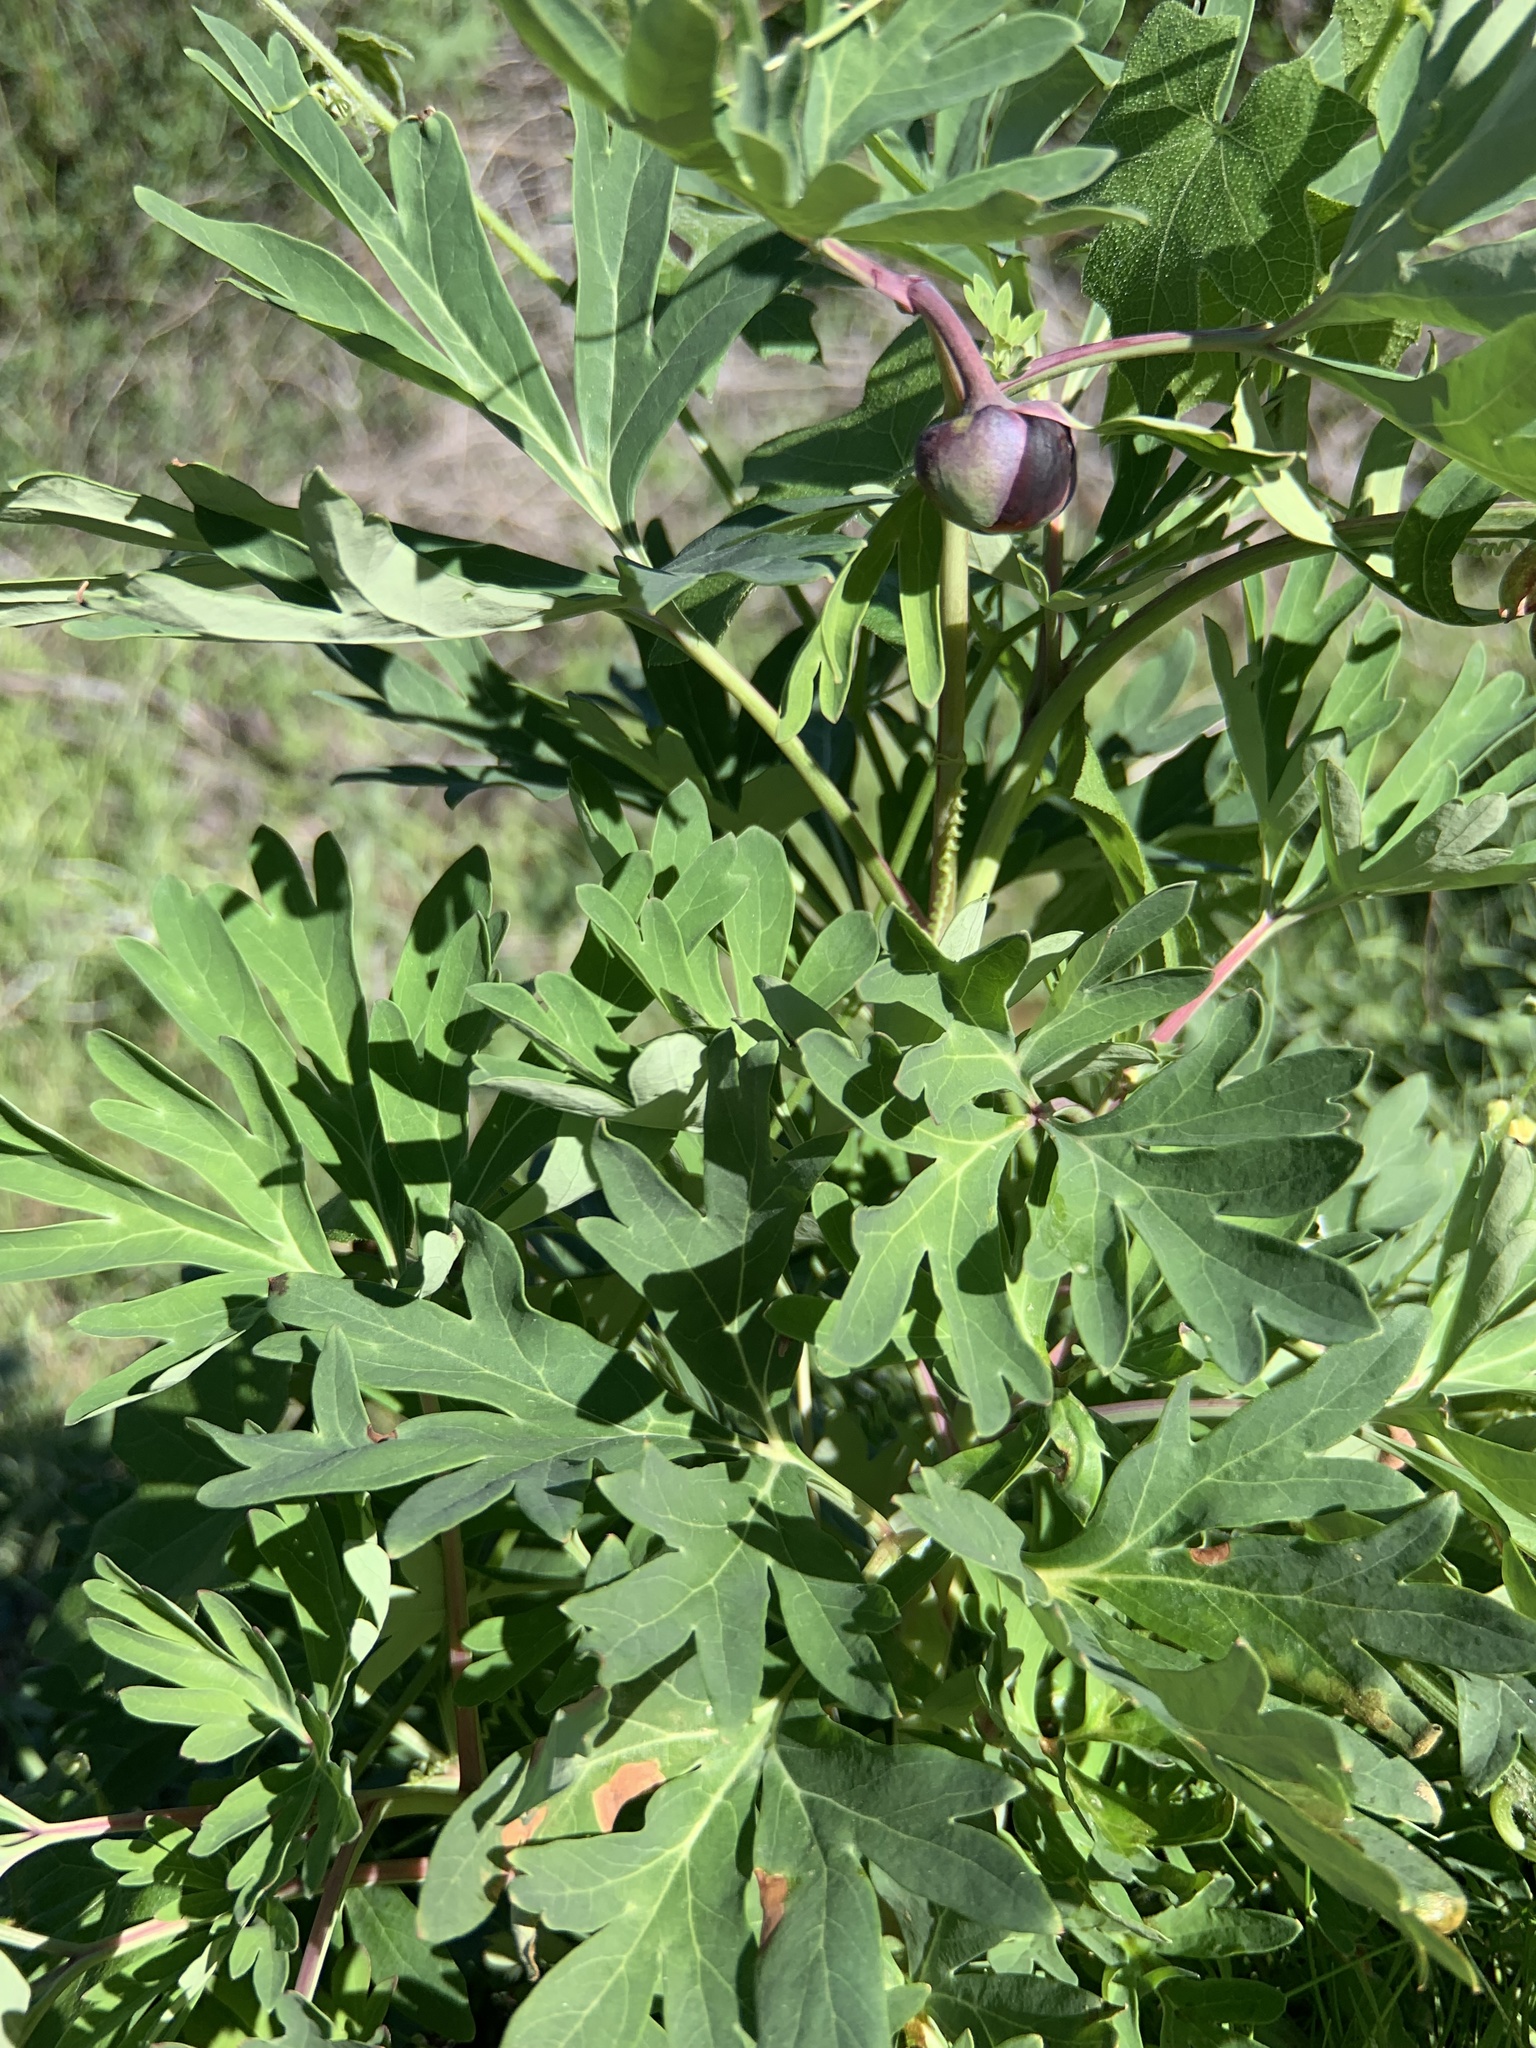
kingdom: Plantae
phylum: Tracheophyta
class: Magnoliopsida
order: Saxifragales
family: Paeoniaceae
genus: Paeonia
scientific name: Paeonia californica
